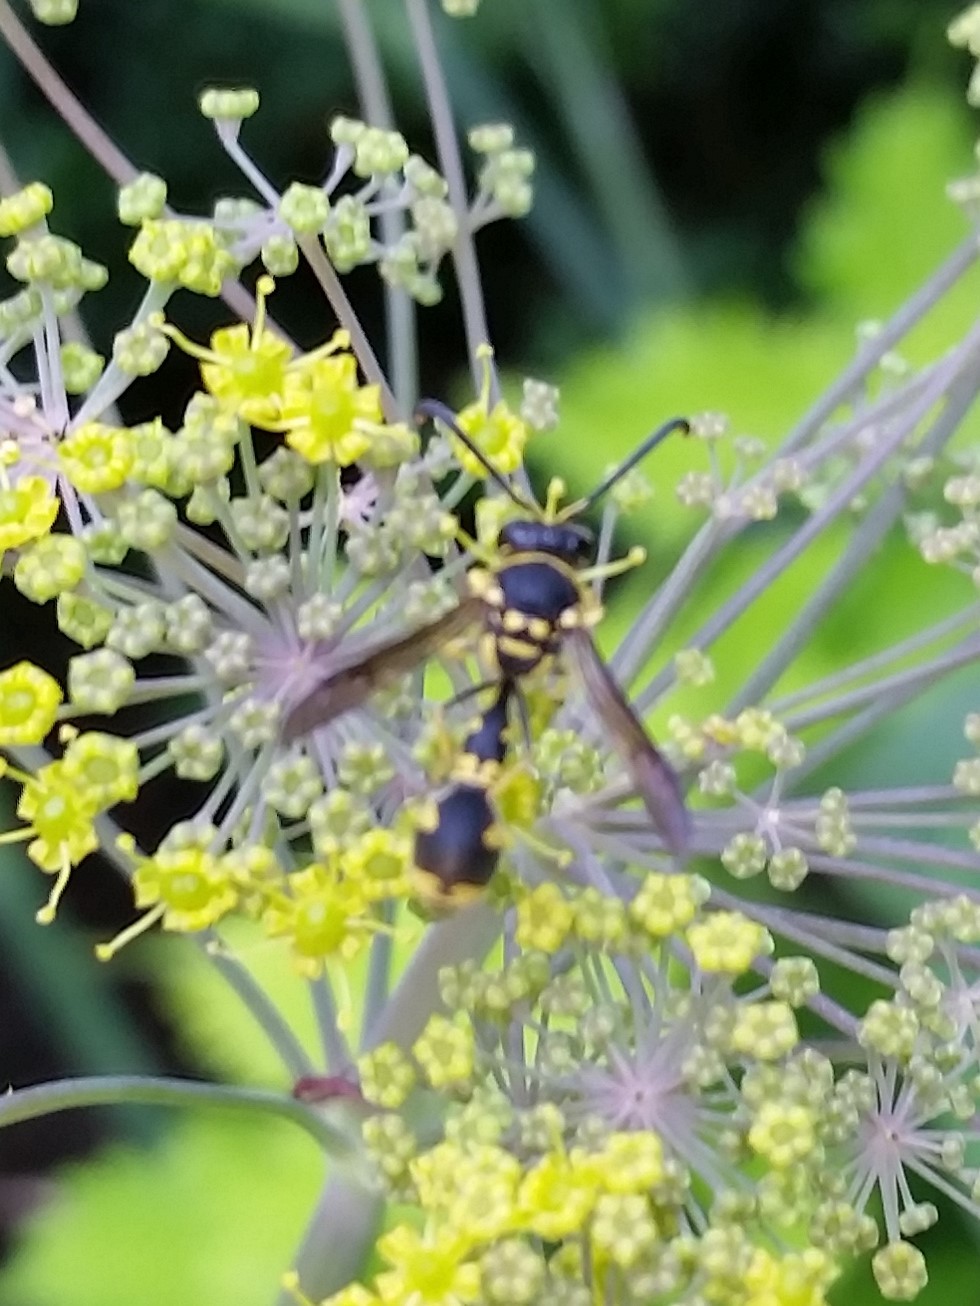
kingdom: Animalia
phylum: Arthropoda
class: Insecta
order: Hymenoptera
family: Vespidae
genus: Eumenes
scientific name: Eumenes mediterraneus
